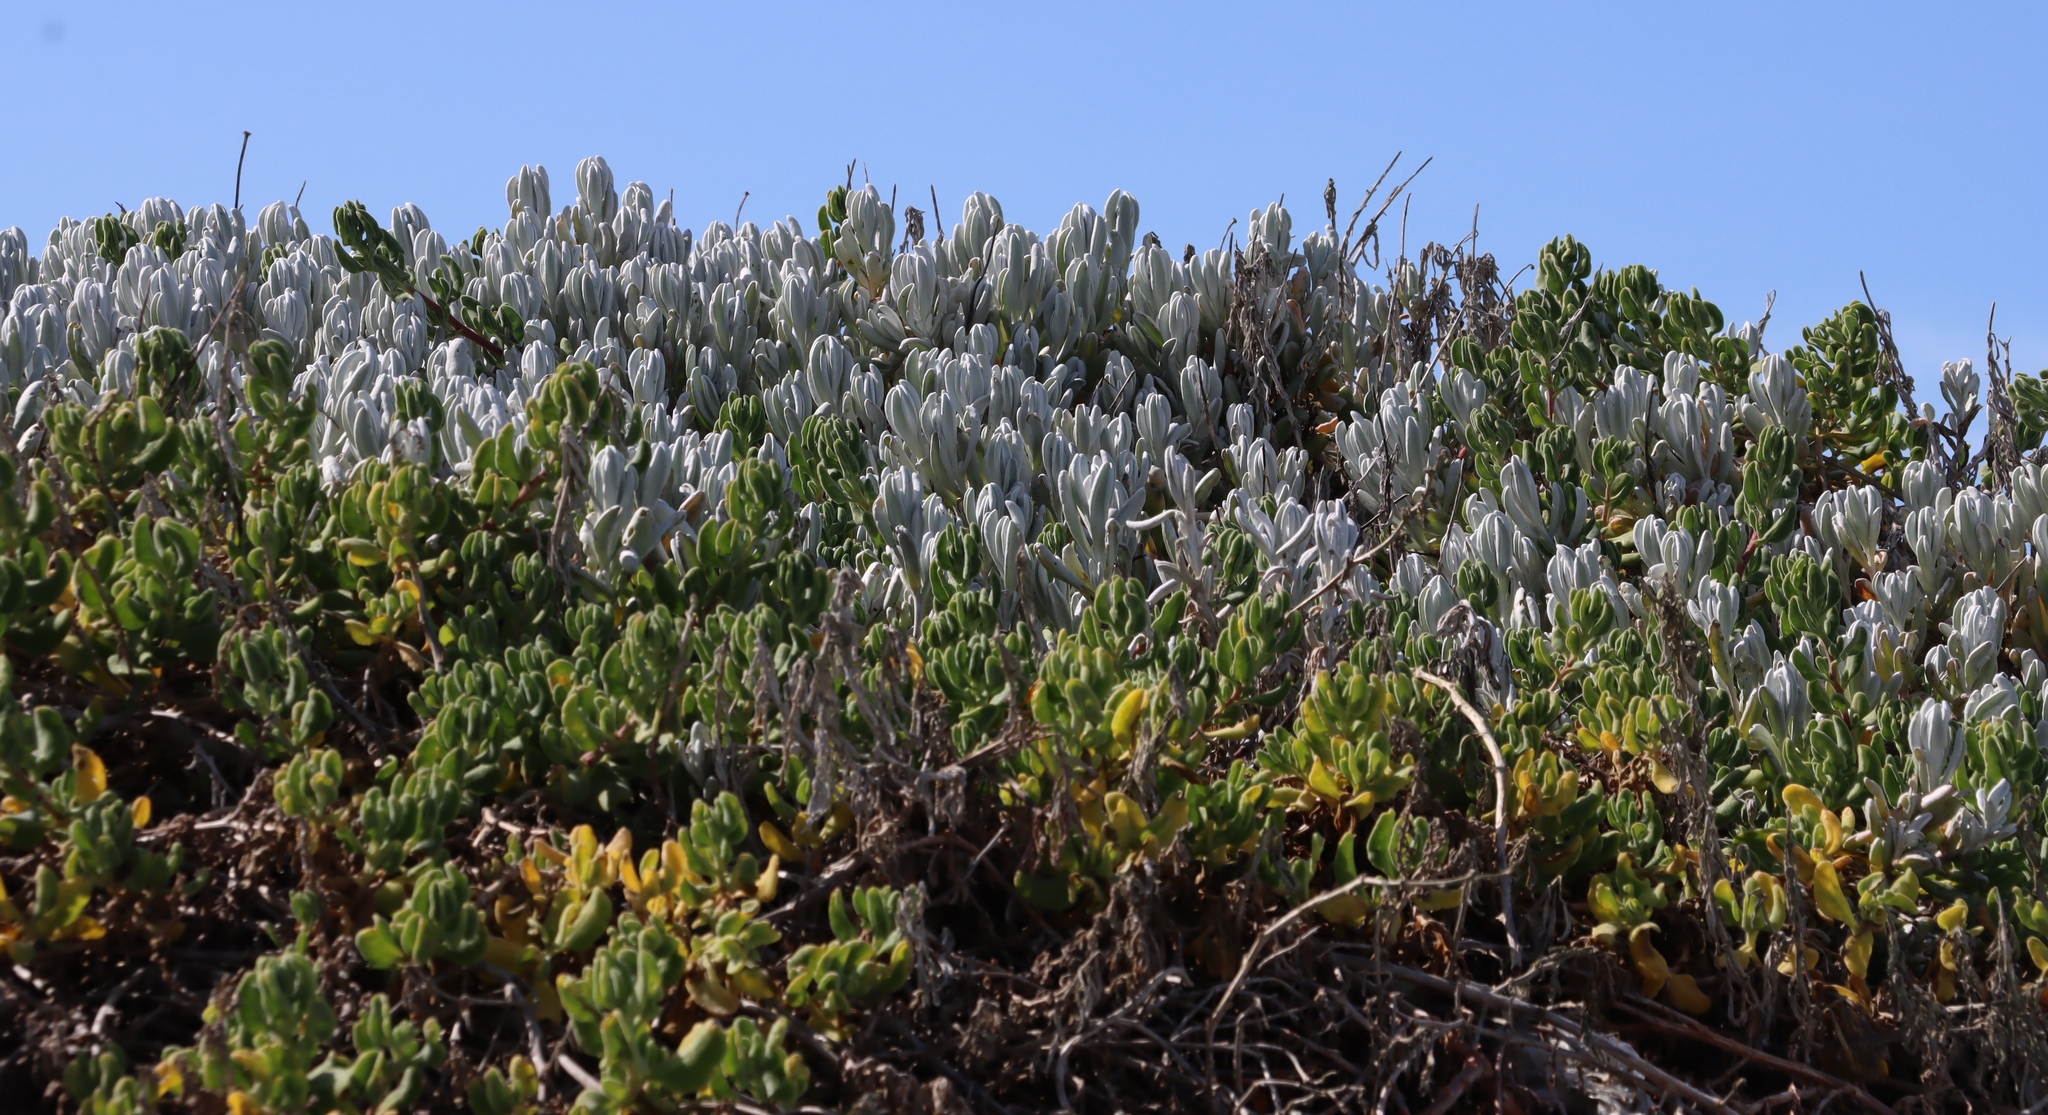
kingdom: Plantae
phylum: Tracheophyta
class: Magnoliopsida
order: Asterales
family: Asteraceae
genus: Didelta
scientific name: Didelta carnosa
